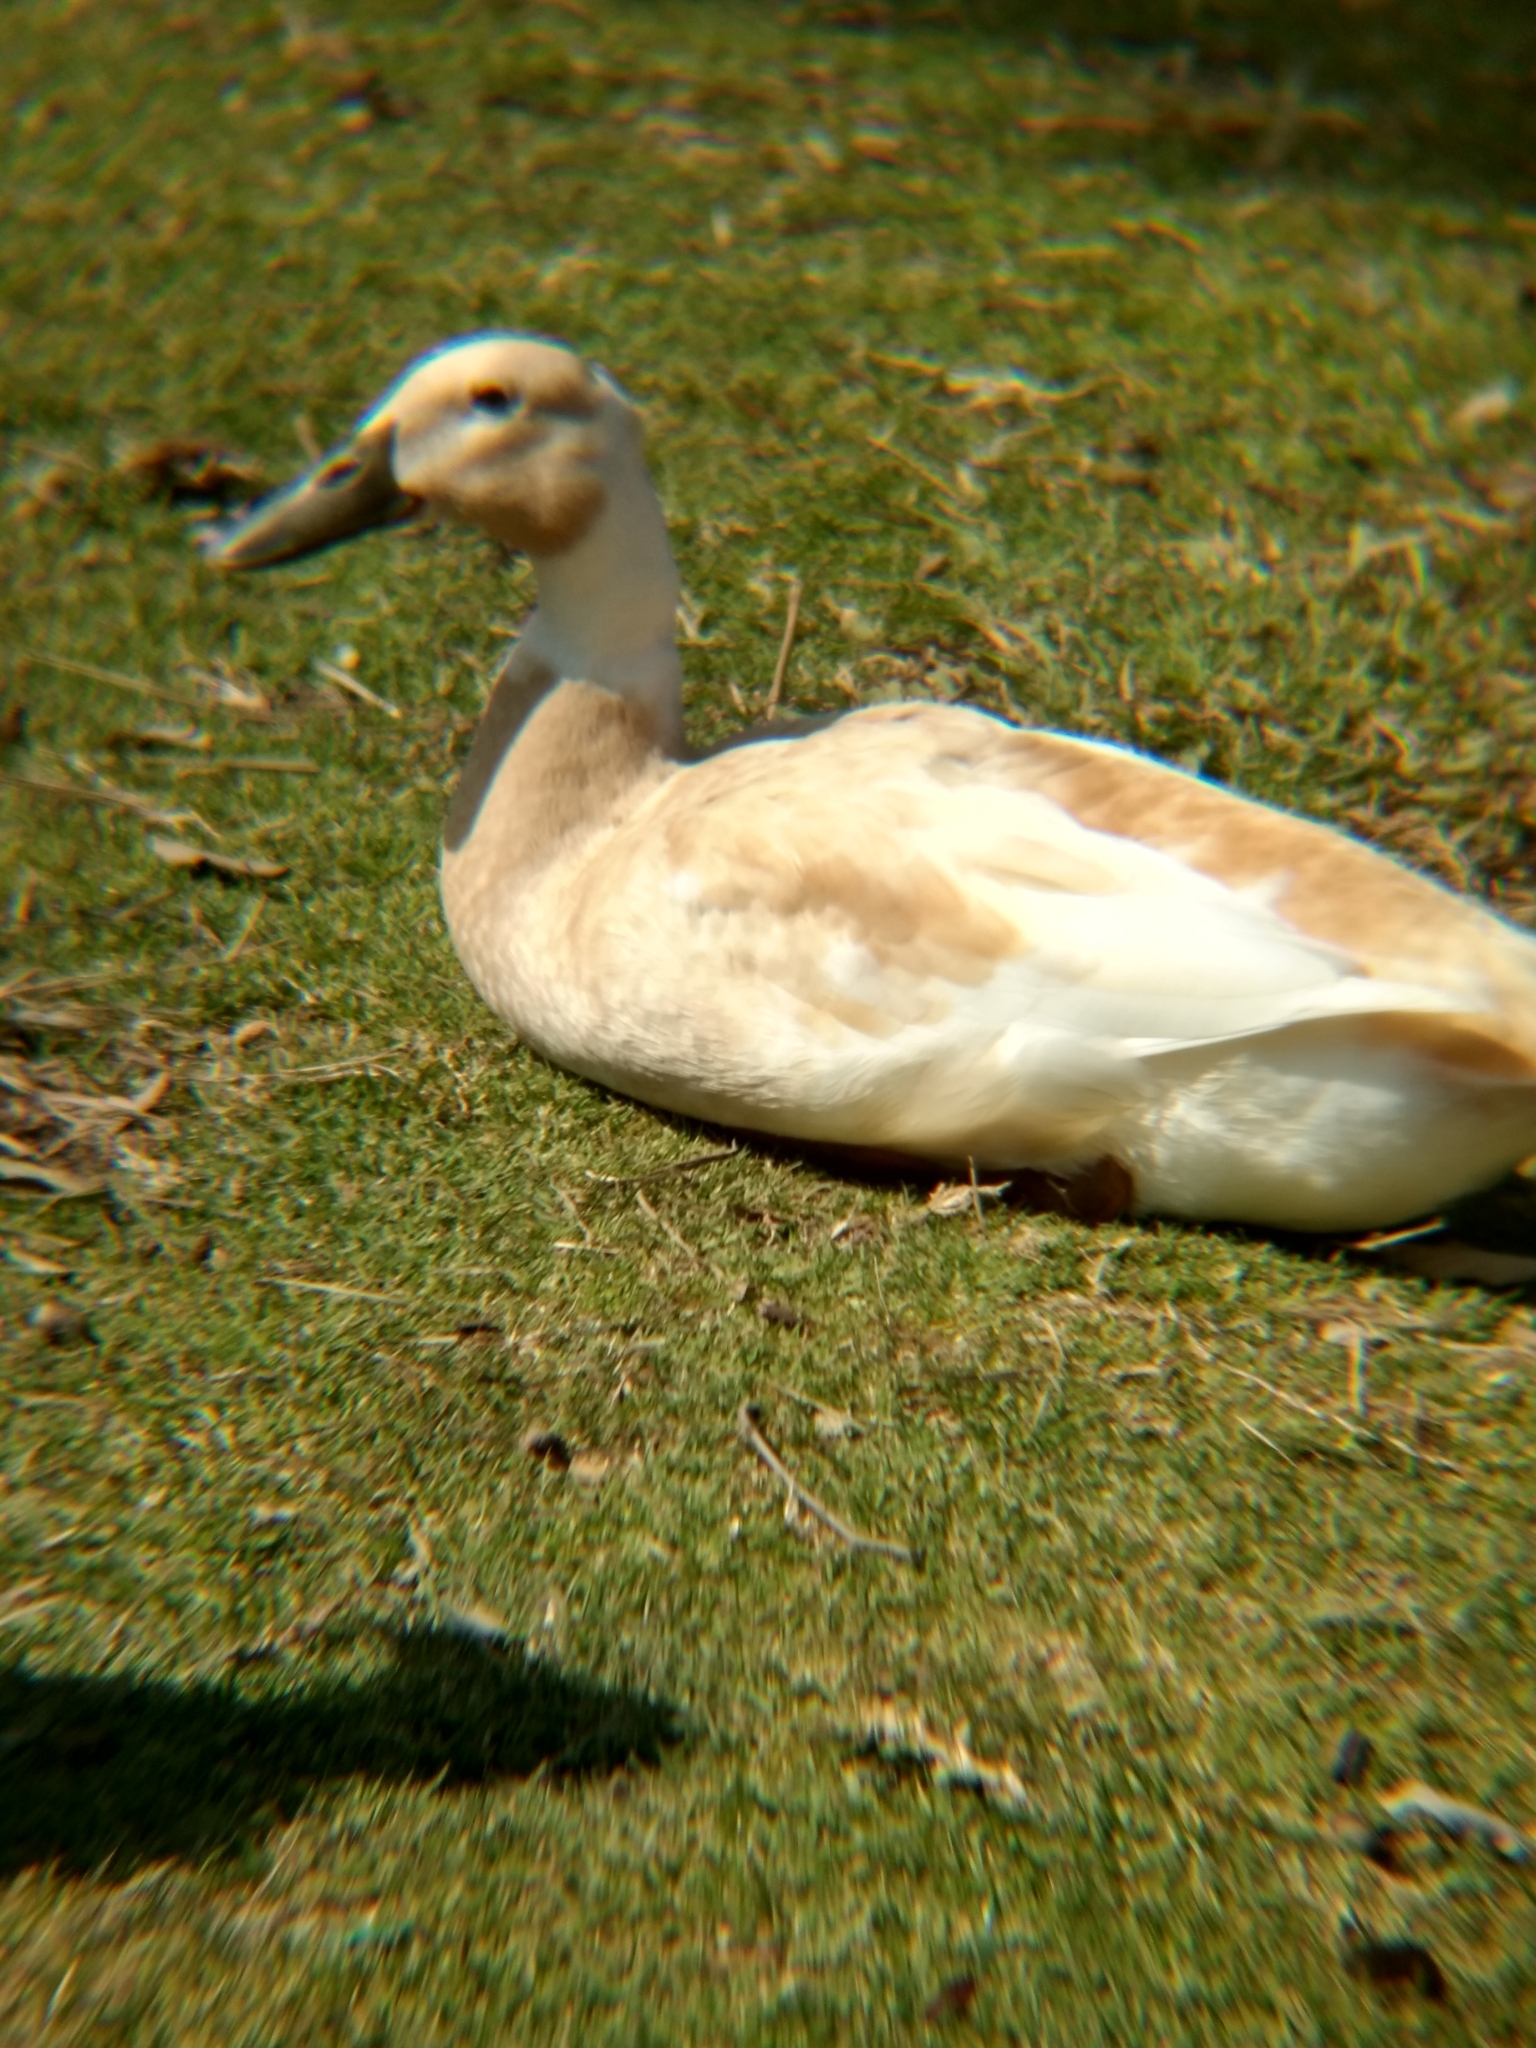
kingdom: Animalia
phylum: Chordata
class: Aves
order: Anseriformes
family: Anatidae
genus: Anas
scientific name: Anas platyrhynchos
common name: Mallard
